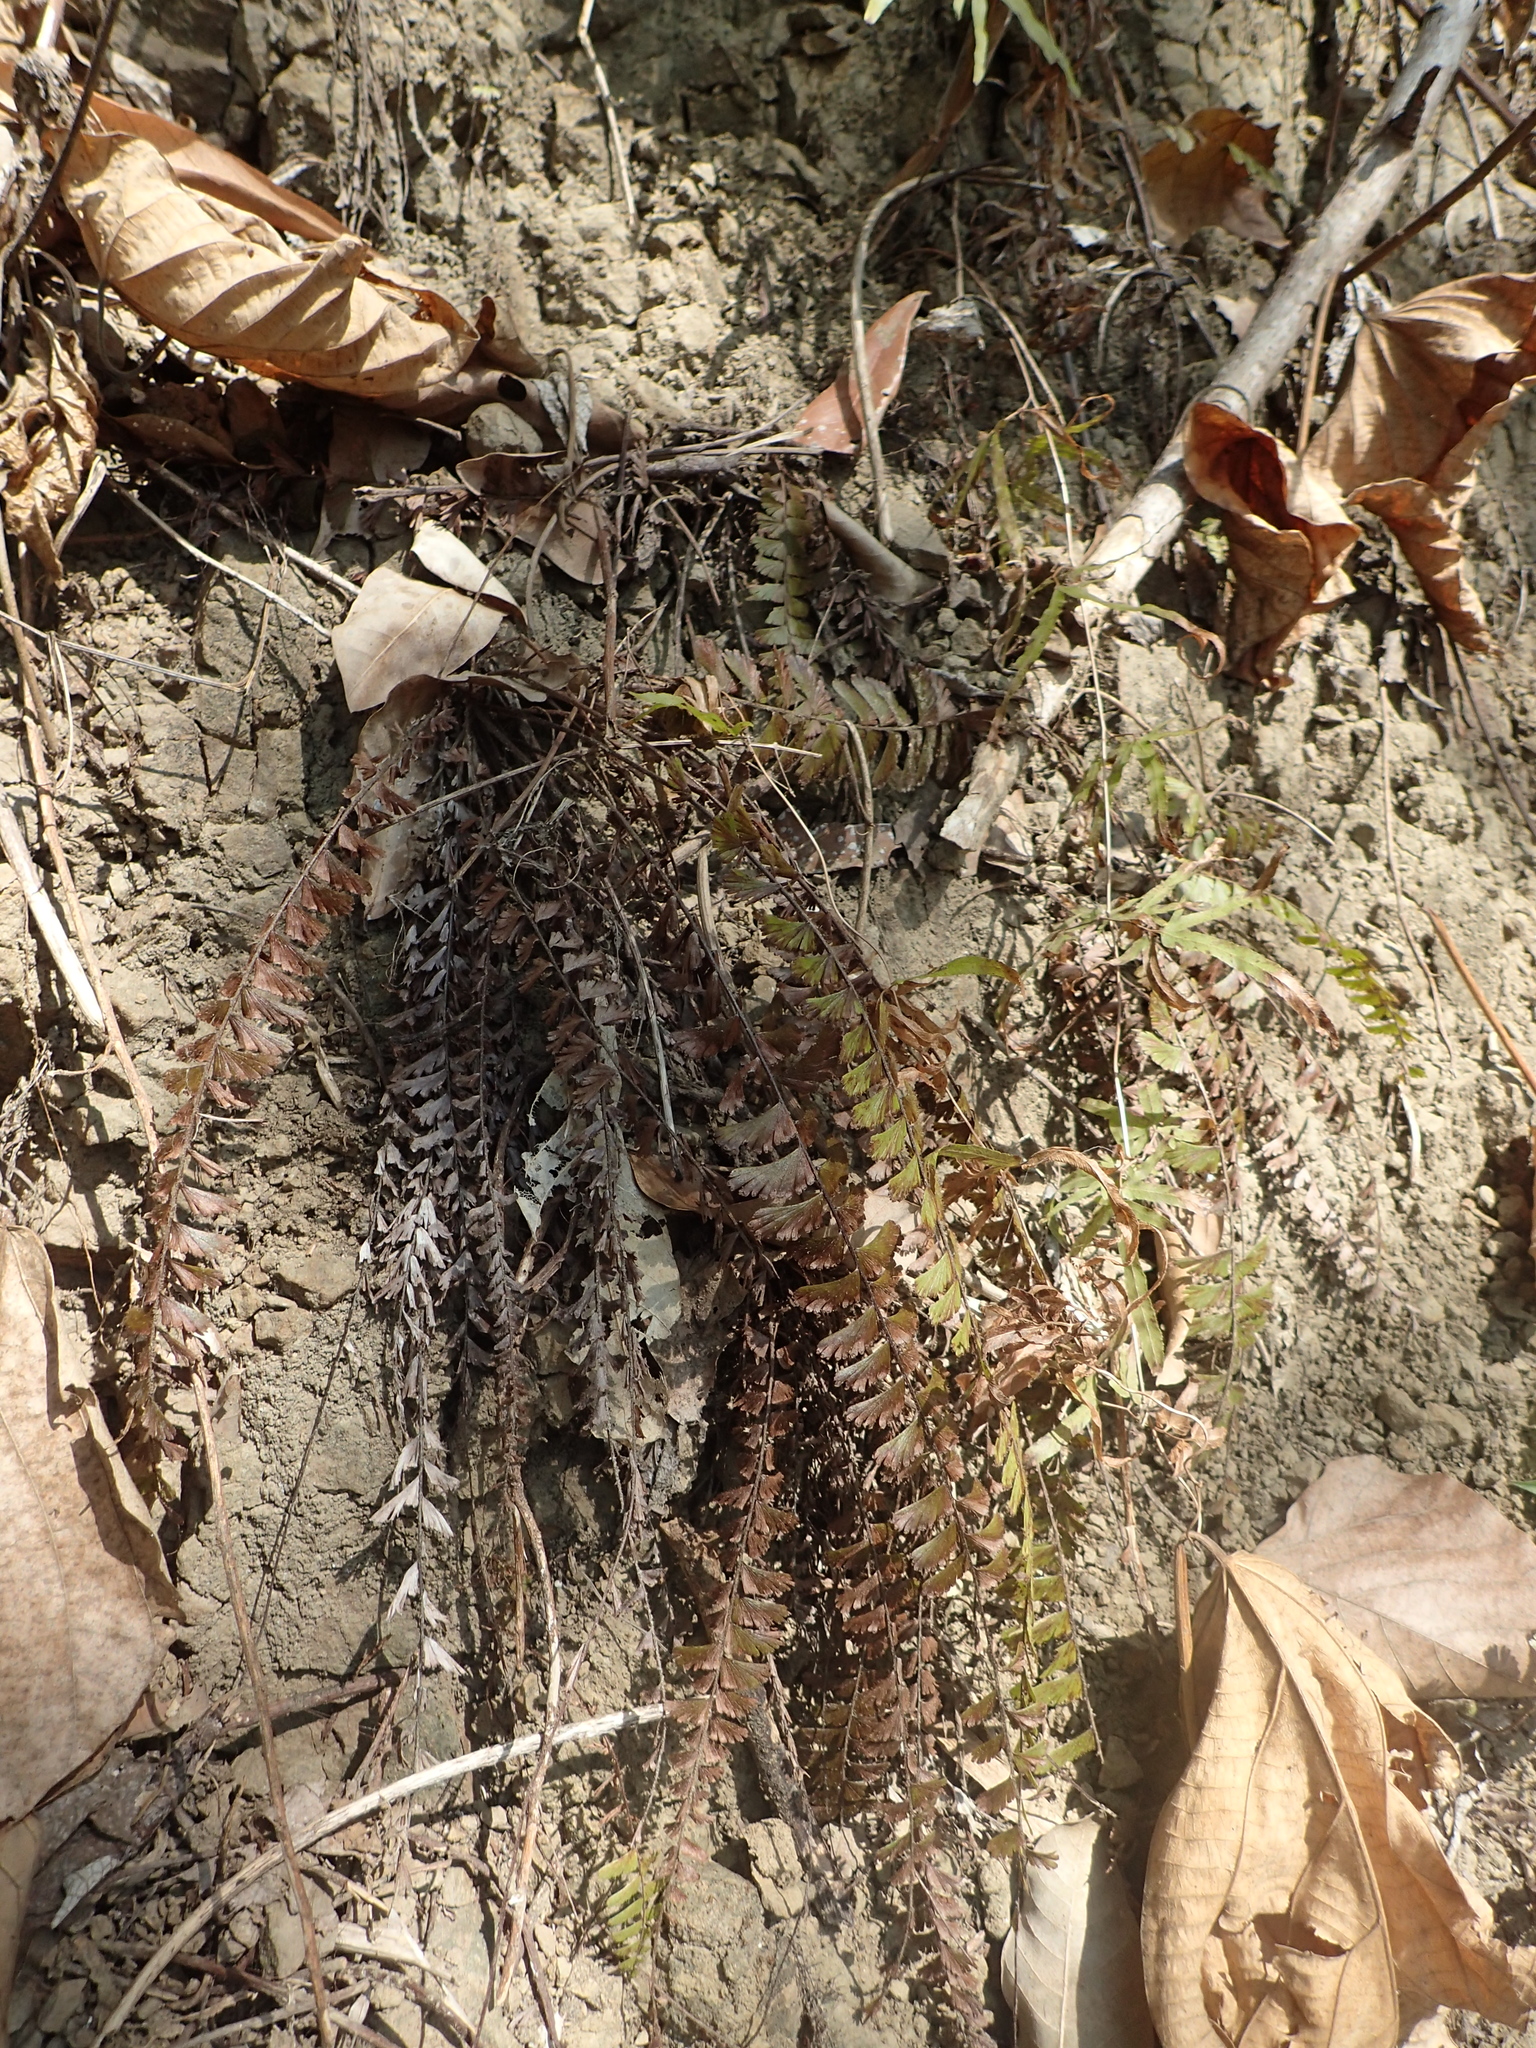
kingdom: Plantae
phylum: Tracheophyta
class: Polypodiopsida
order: Polypodiales
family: Pteridaceae
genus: Adiantum
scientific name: Adiantum caudatum
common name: Tailed maidenhair
